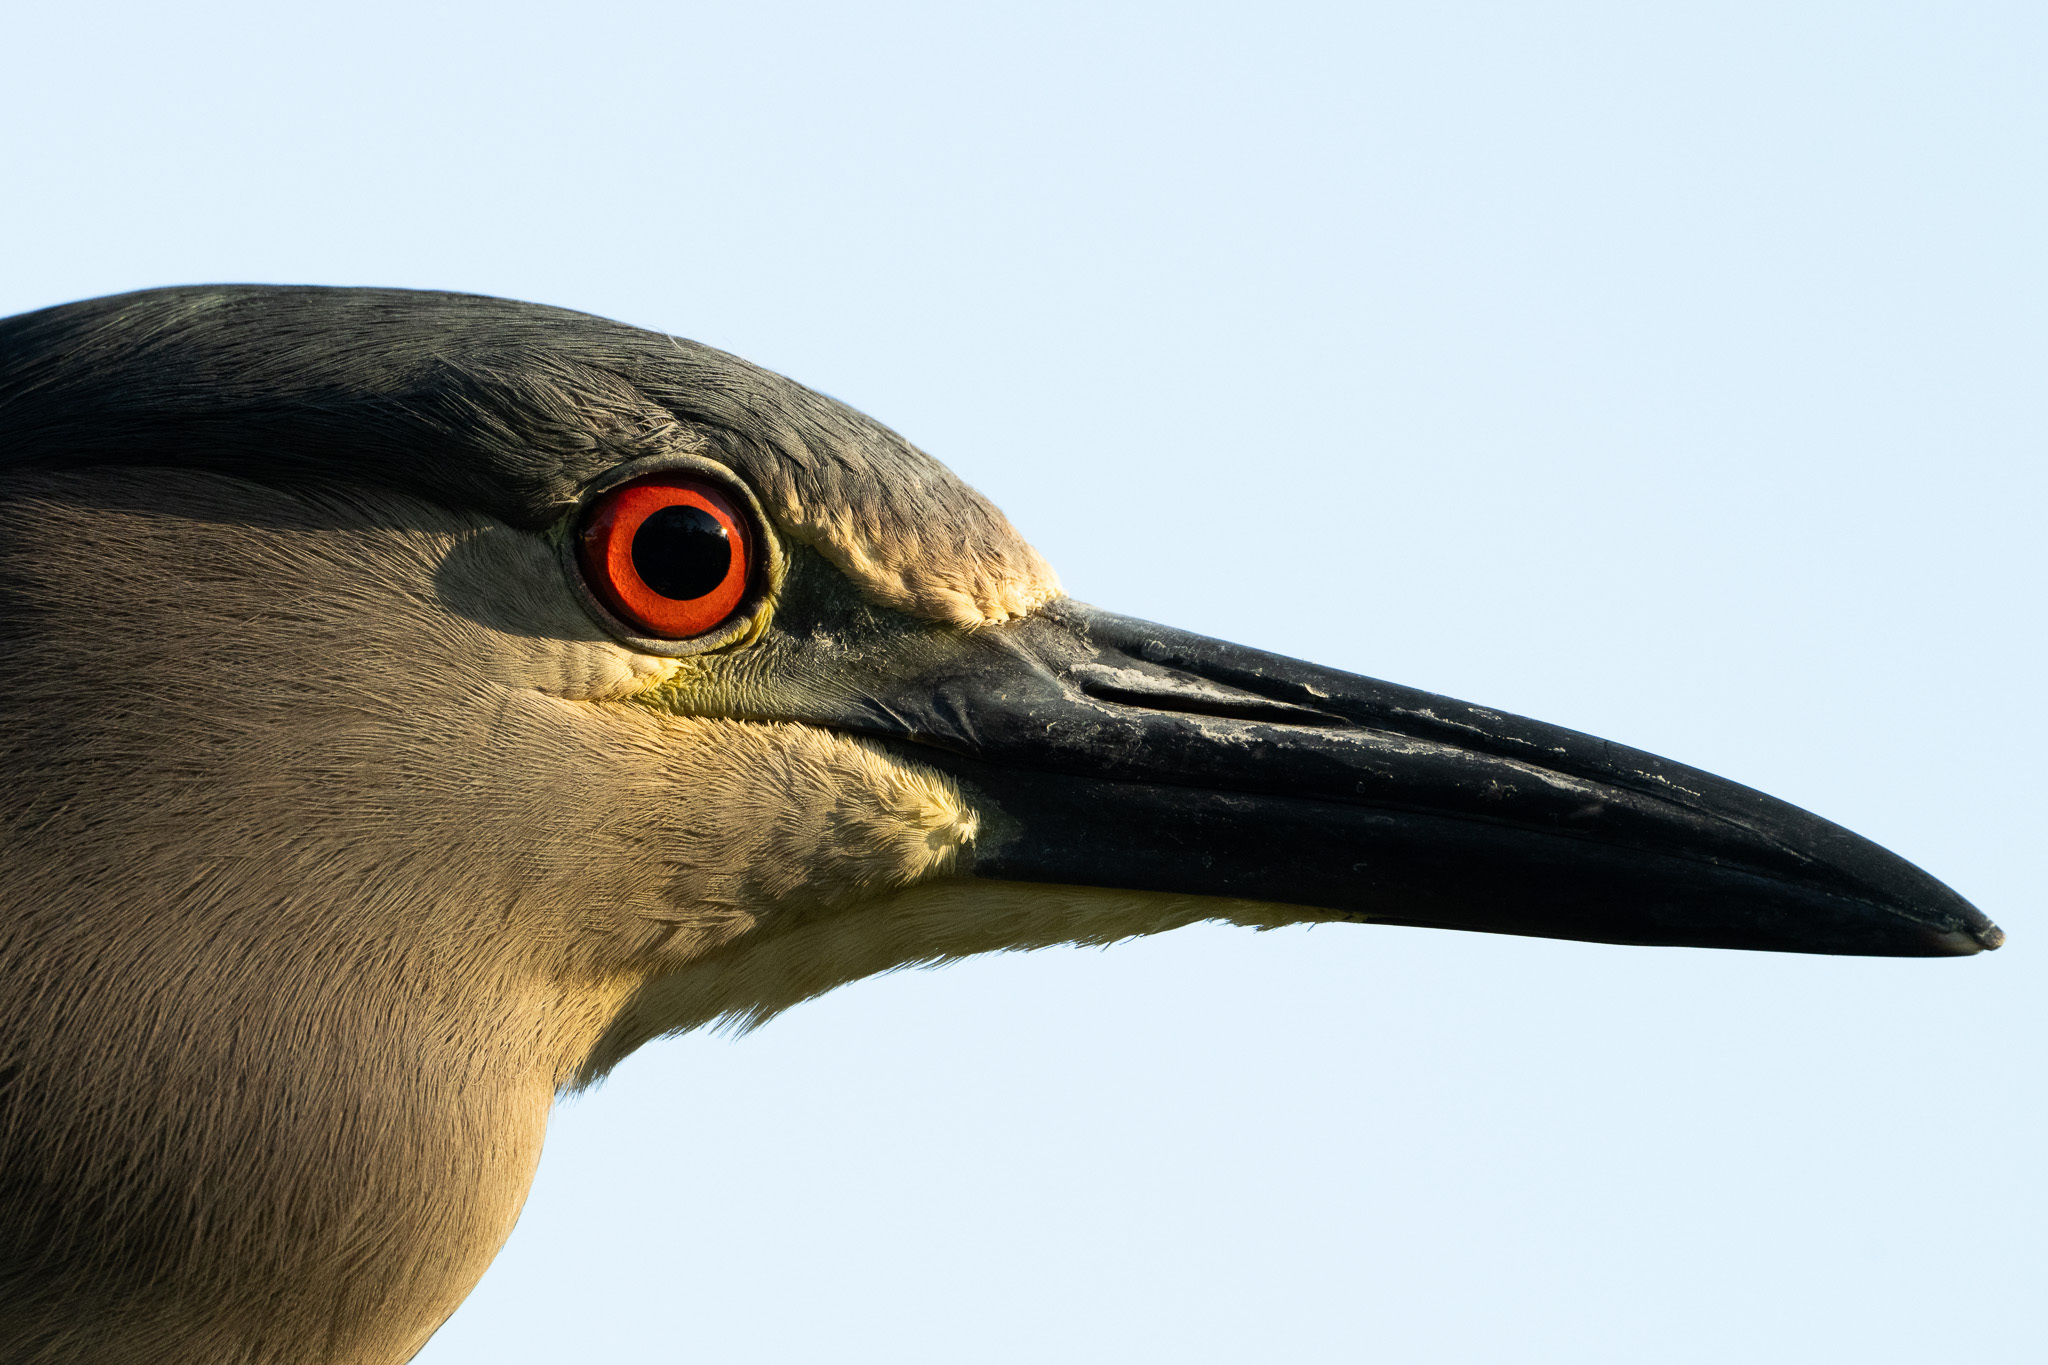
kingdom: Animalia
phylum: Chordata
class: Aves
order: Pelecaniformes
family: Ardeidae
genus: Nycticorax
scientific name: Nycticorax nycticorax
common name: Black-crowned night heron
